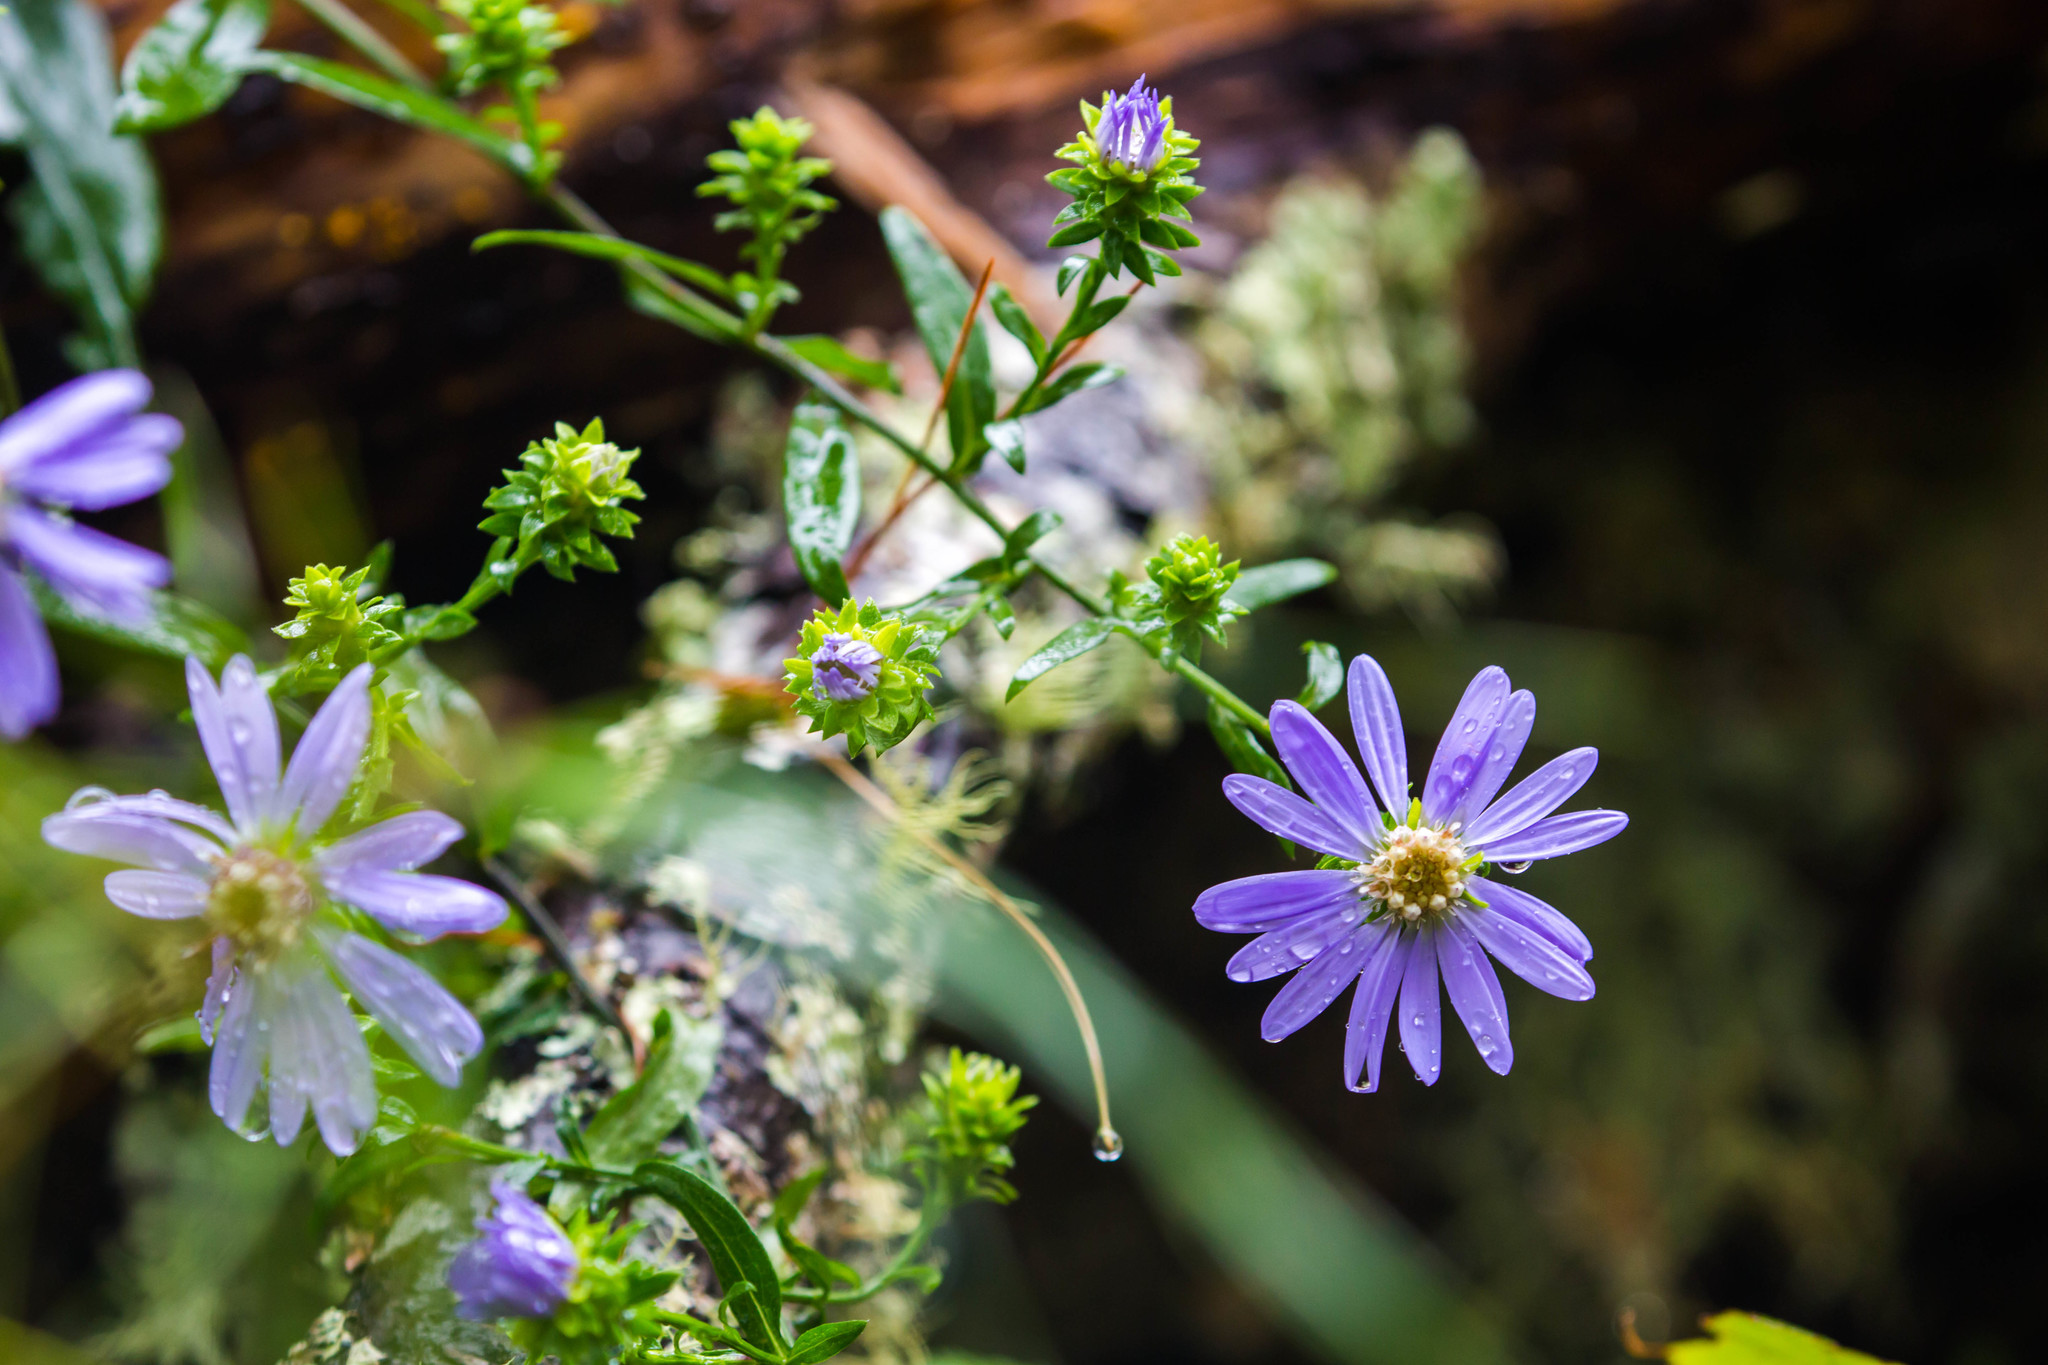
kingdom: Plantae
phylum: Tracheophyta
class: Magnoliopsida
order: Asterales
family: Asteraceae
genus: Symphyotrichum
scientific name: Symphyotrichum retroflexum
